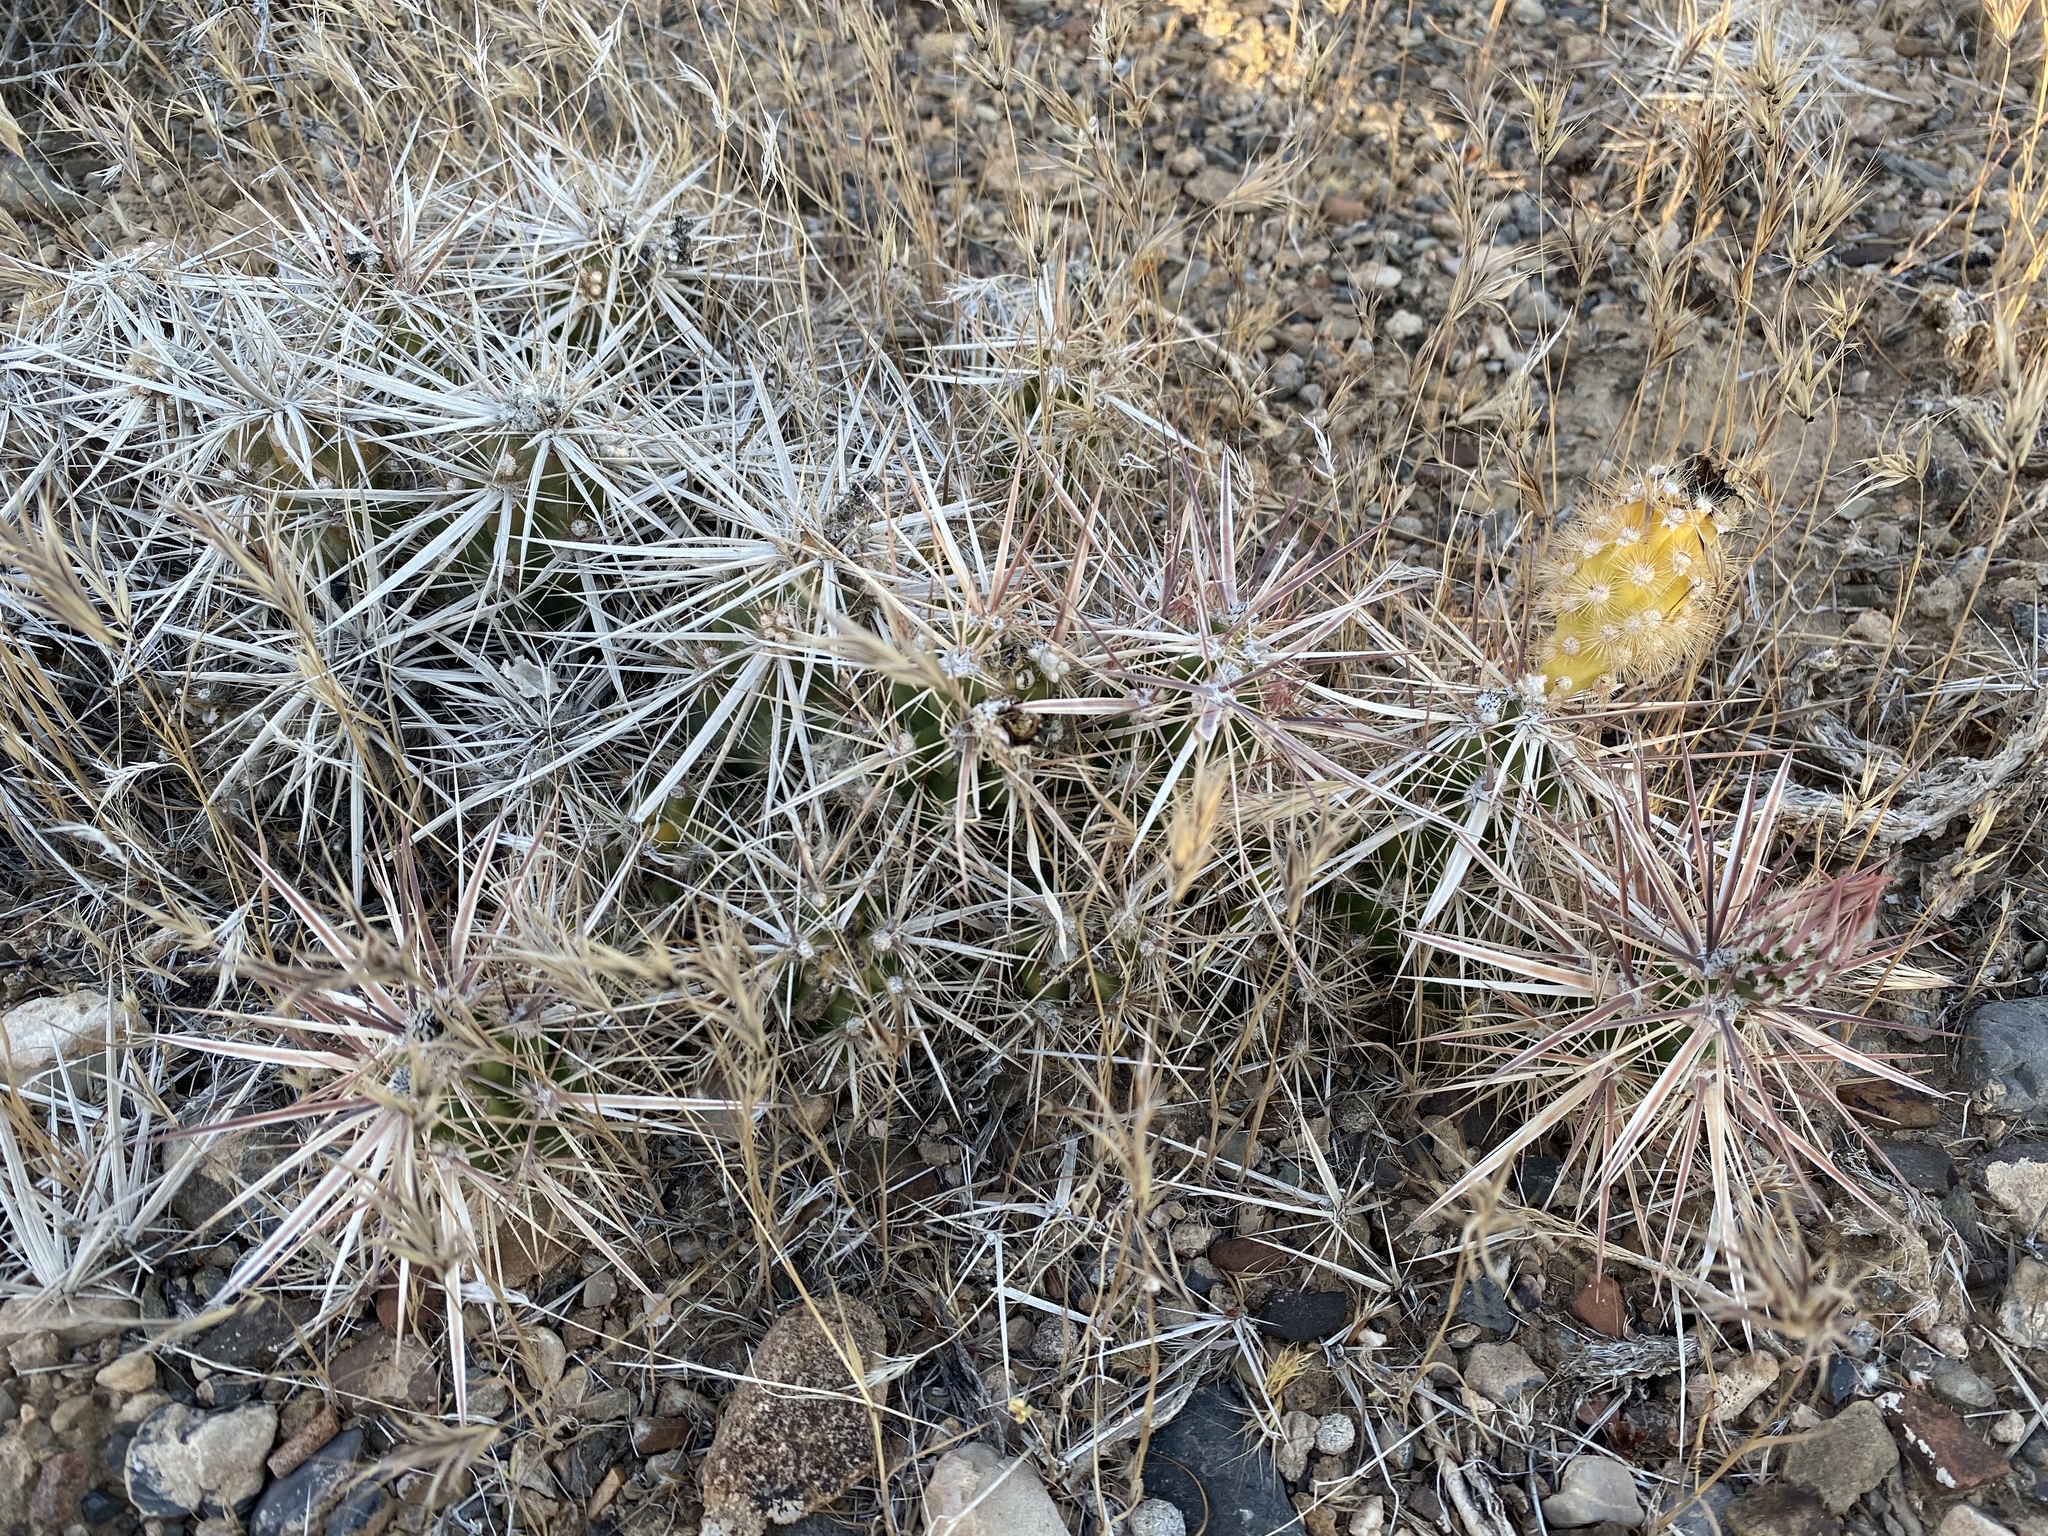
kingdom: Plantae
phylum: Tracheophyta
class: Magnoliopsida
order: Caryophyllales
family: Cactaceae
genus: Grusonia
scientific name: Grusonia parishiorum
